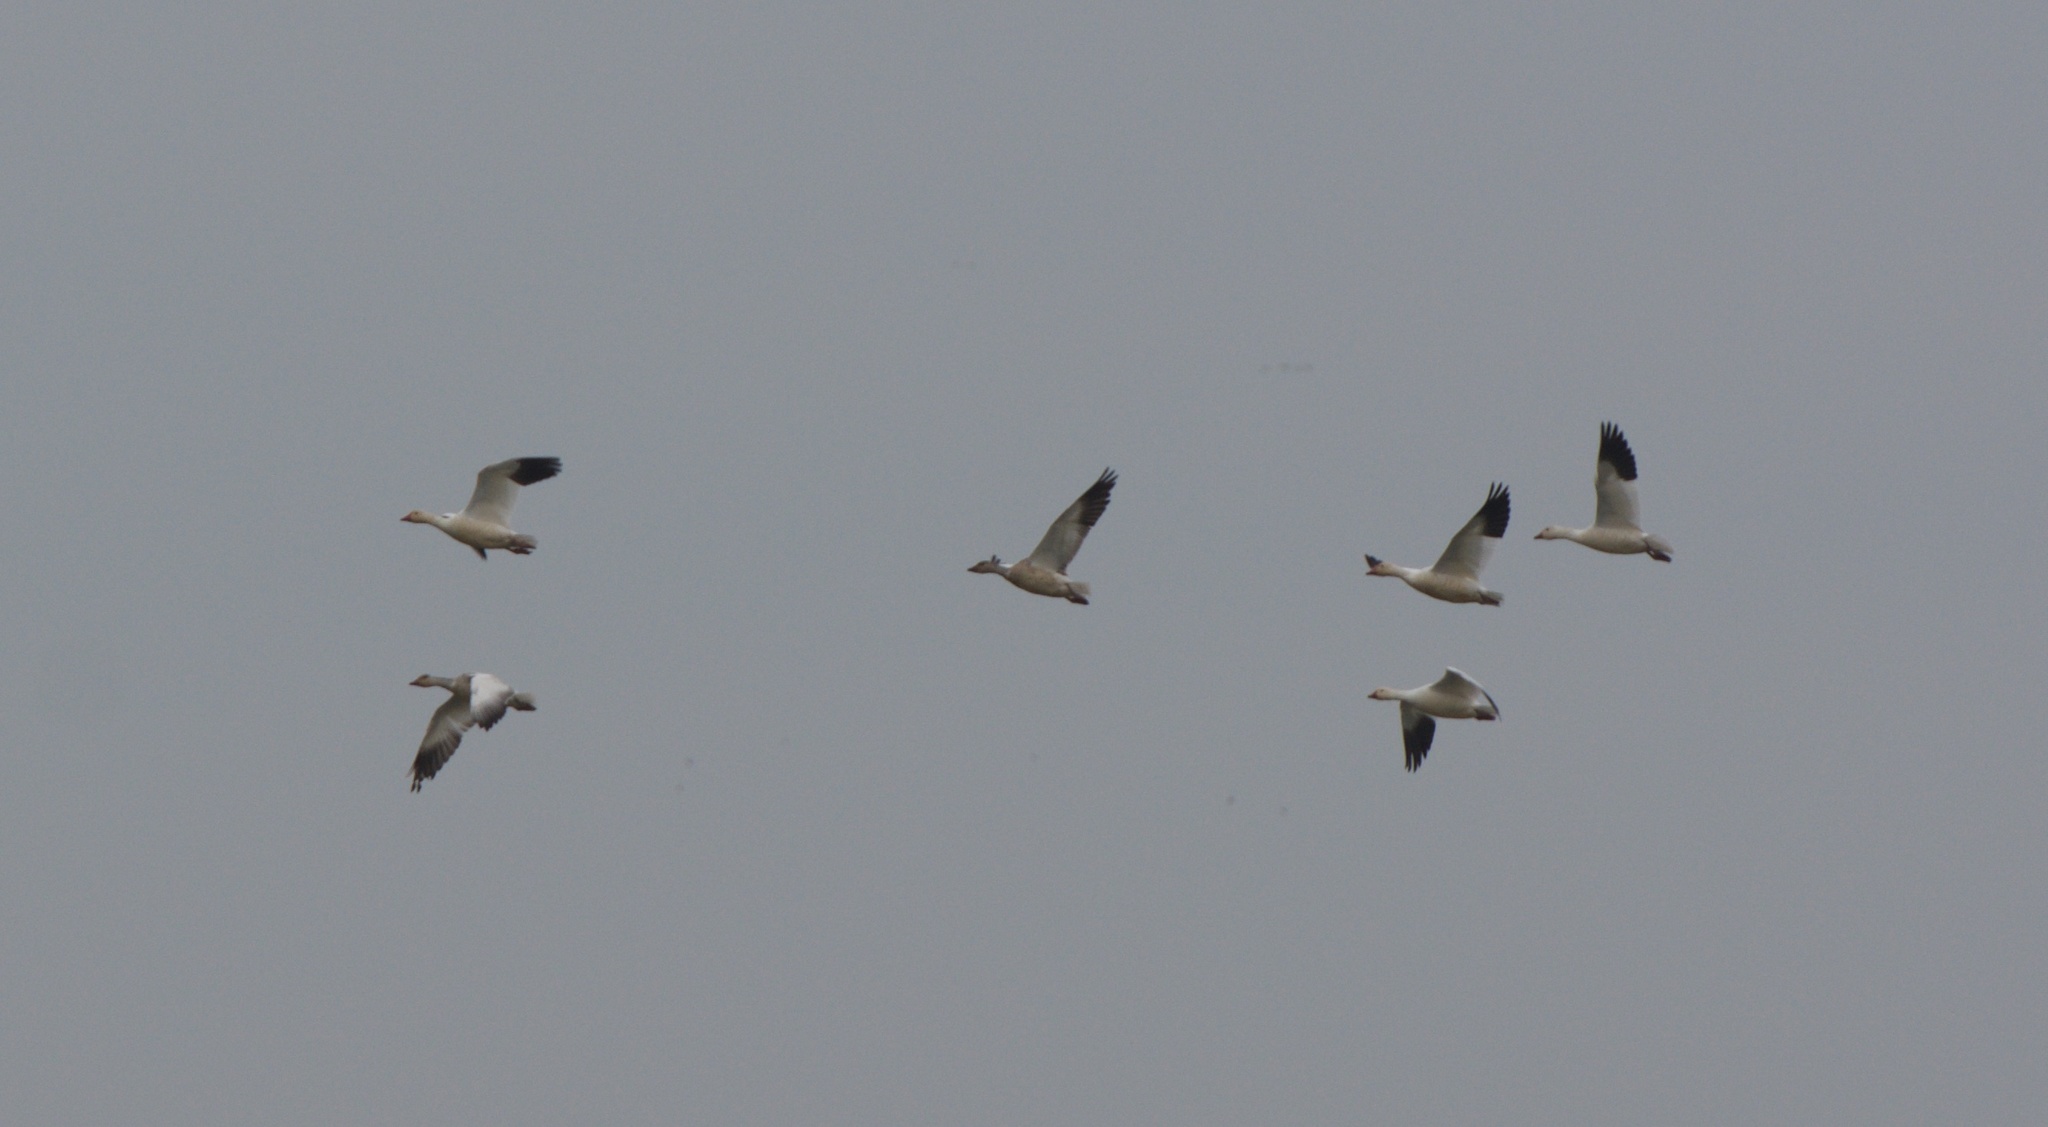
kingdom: Animalia
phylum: Chordata
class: Aves
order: Anseriformes
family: Anatidae
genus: Anser
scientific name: Anser caerulescens
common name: Snow goose
